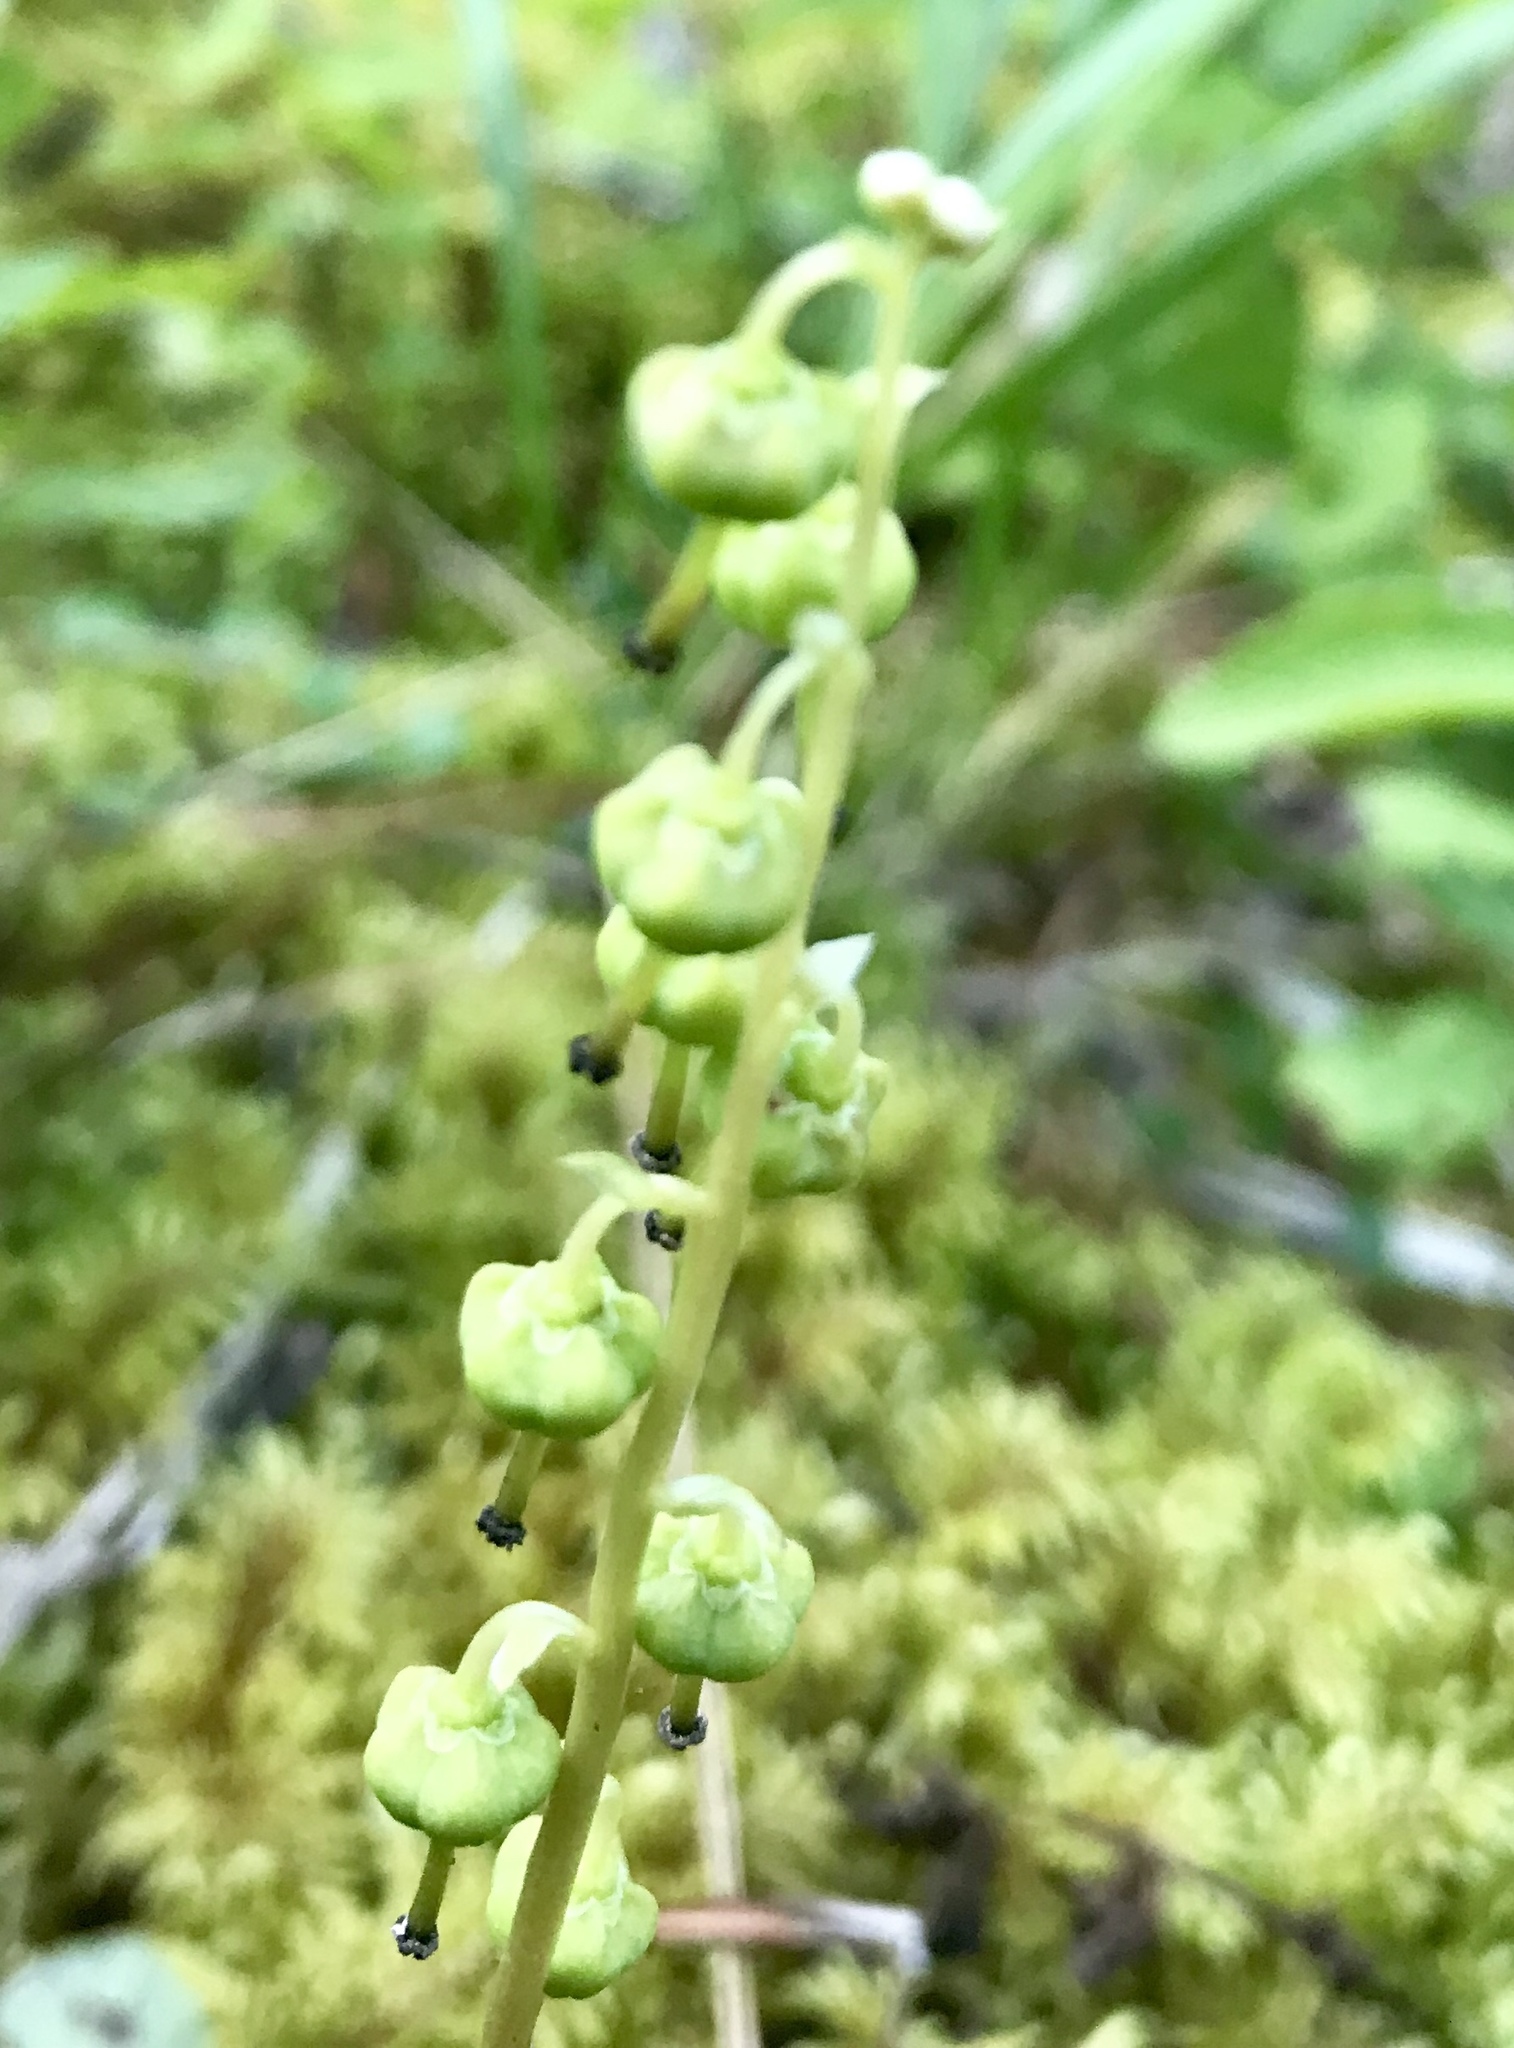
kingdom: Plantae
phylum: Tracheophyta
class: Magnoliopsida
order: Ericales
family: Ericaceae
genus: Orthilia
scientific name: Orthilia secunda
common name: One-sided orthilia
